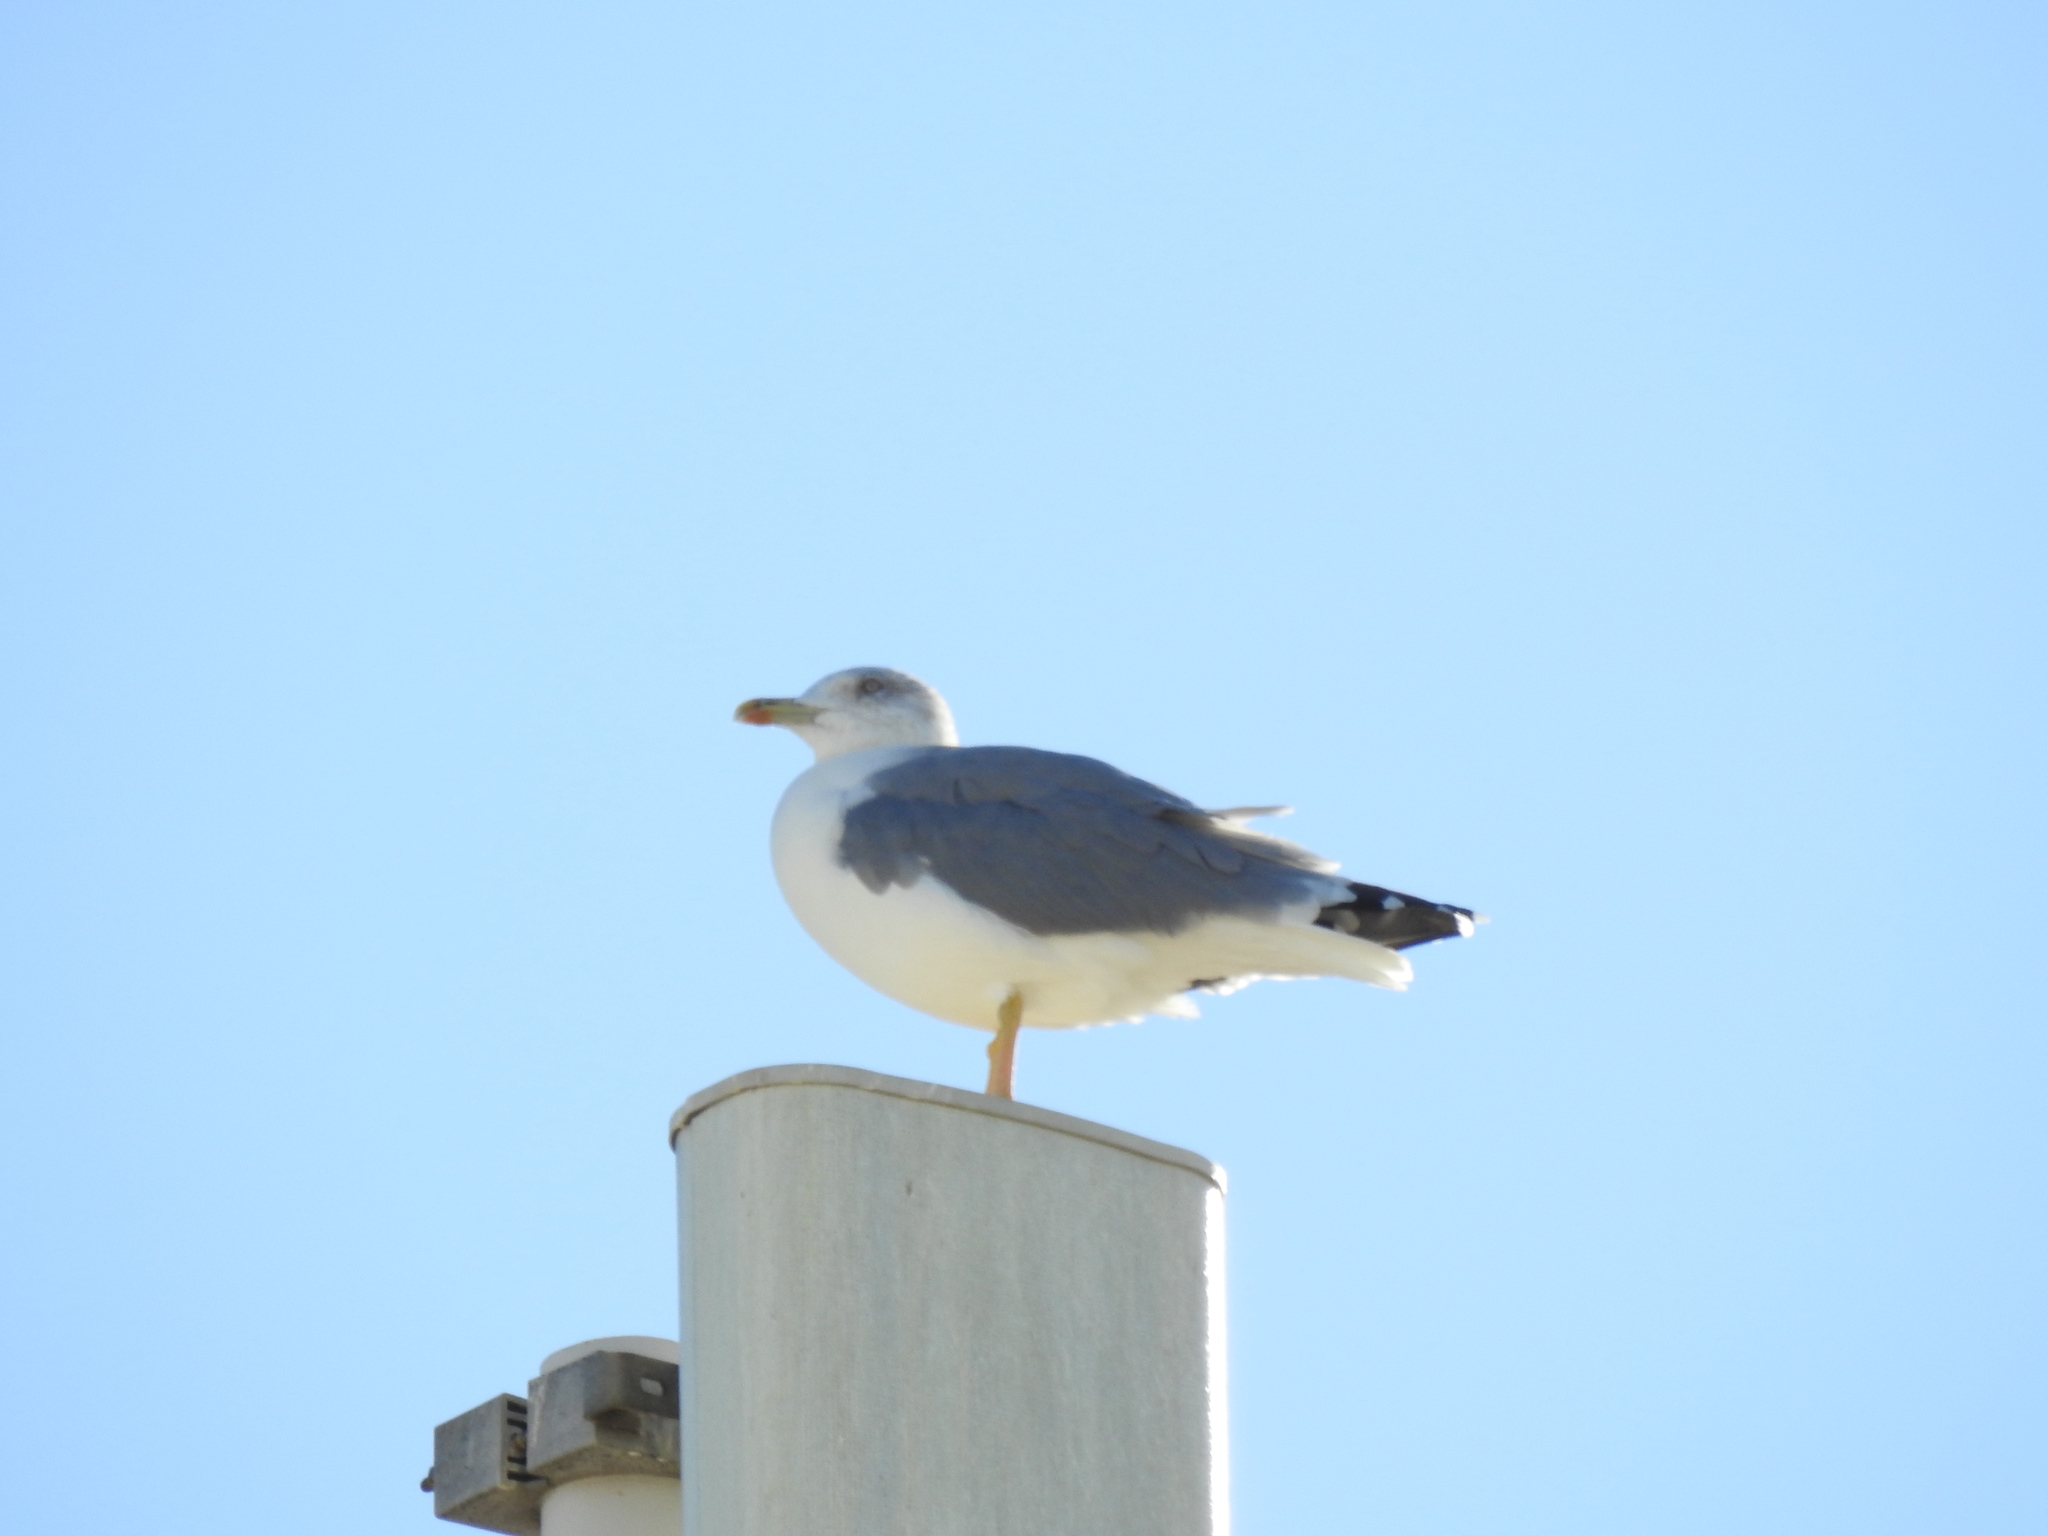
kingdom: Animalia
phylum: Chordata
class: Aves
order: Charadriiformes
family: Laridae
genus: Larus
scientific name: Larus michahellis
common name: Yellow-legged gull
